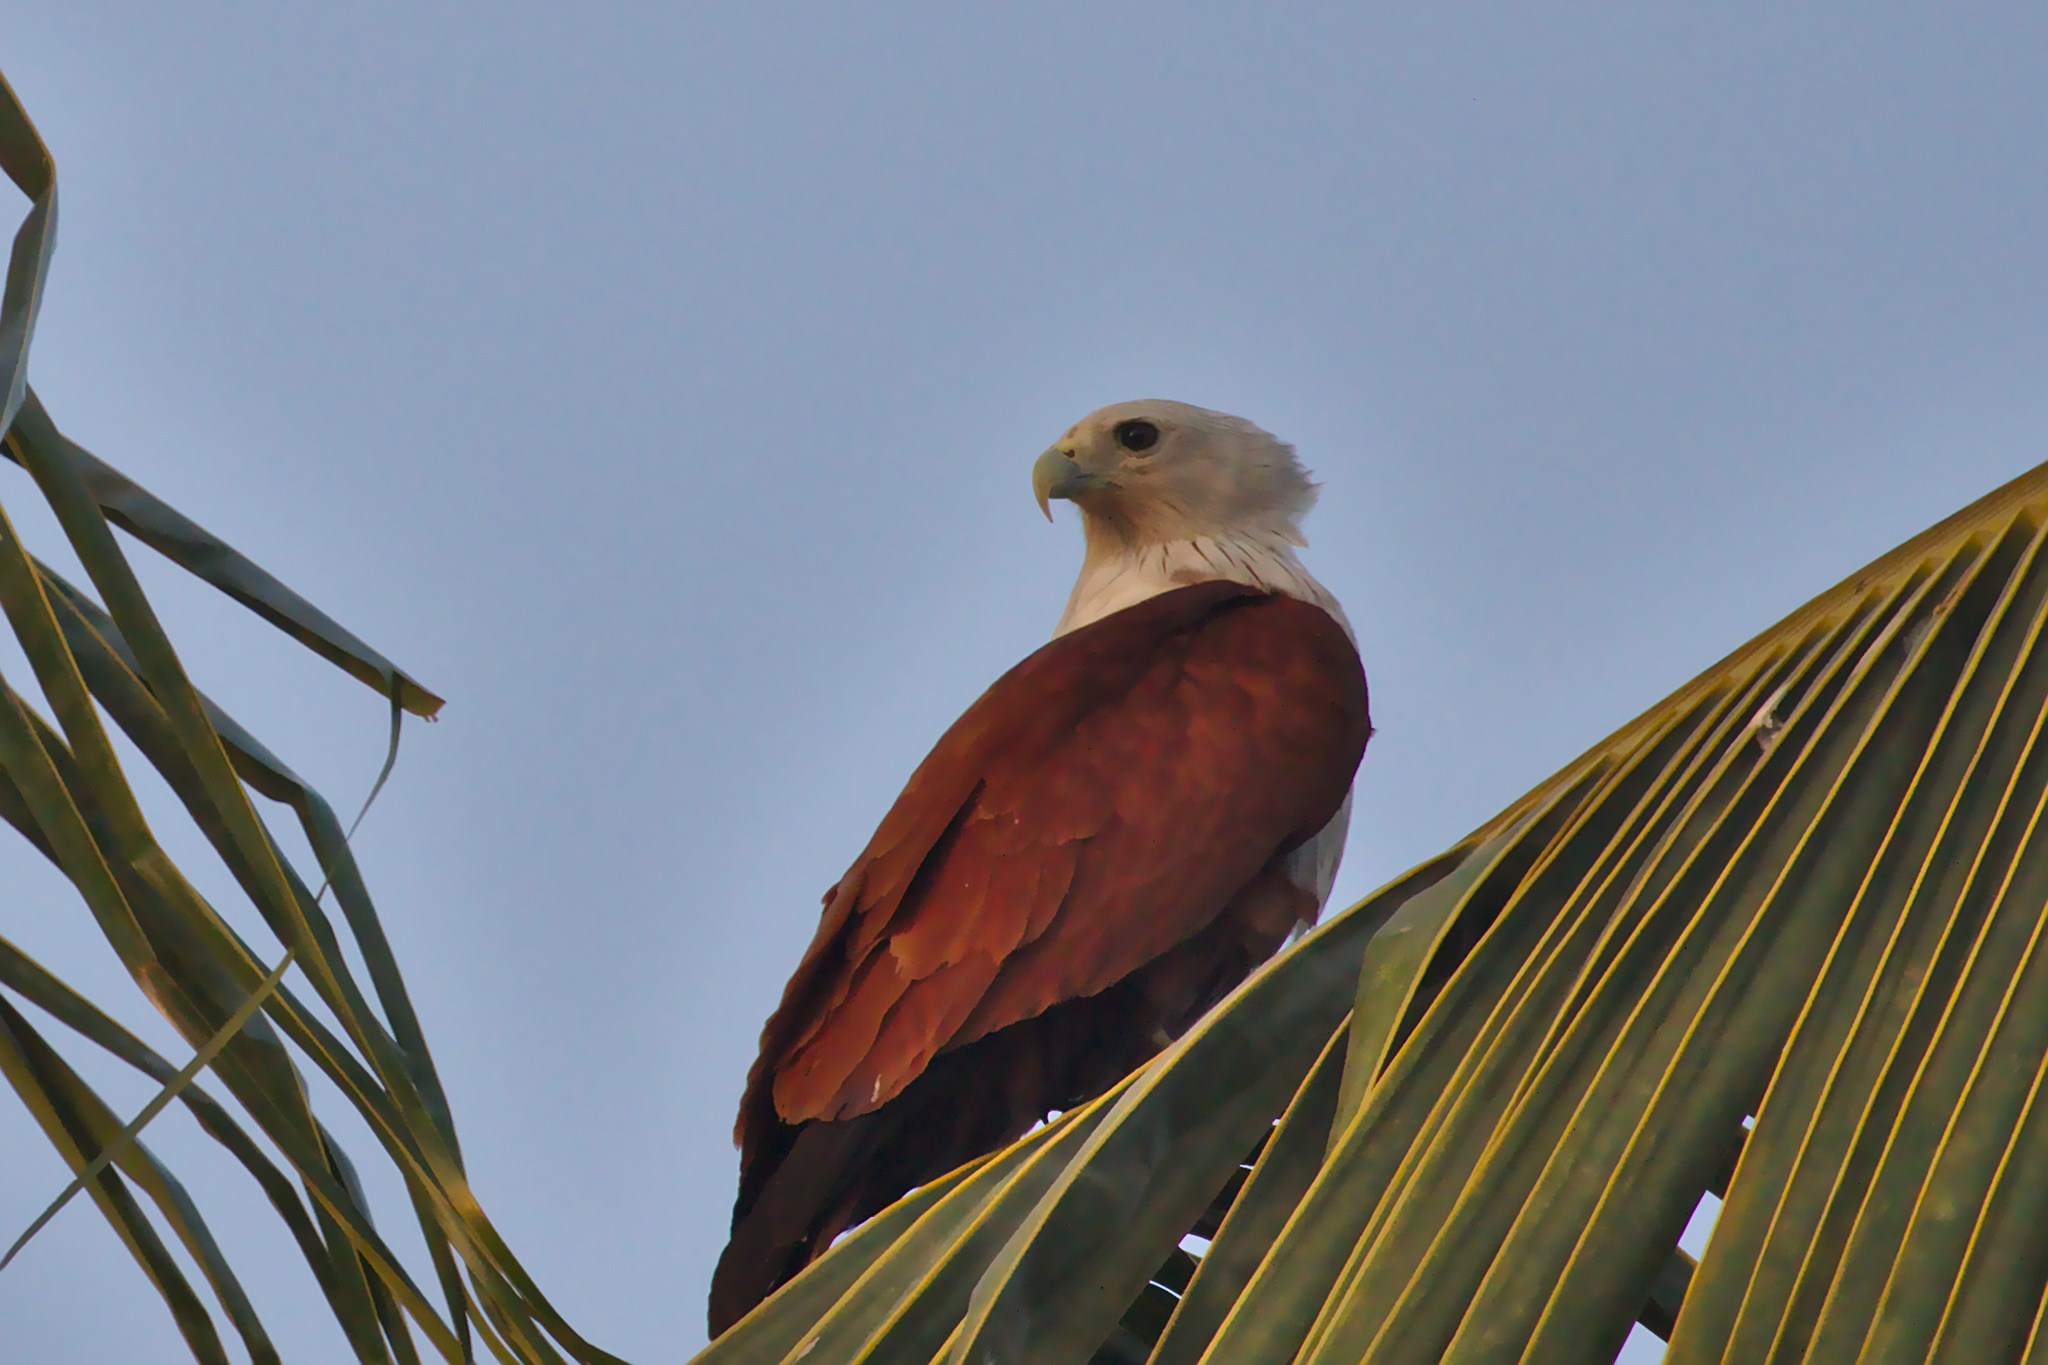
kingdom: Animalia
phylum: Chordata
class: Aves
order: Accipitriformes
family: Accipitridae
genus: Haliastur
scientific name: Haliastur indus
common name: Brahminy kite
